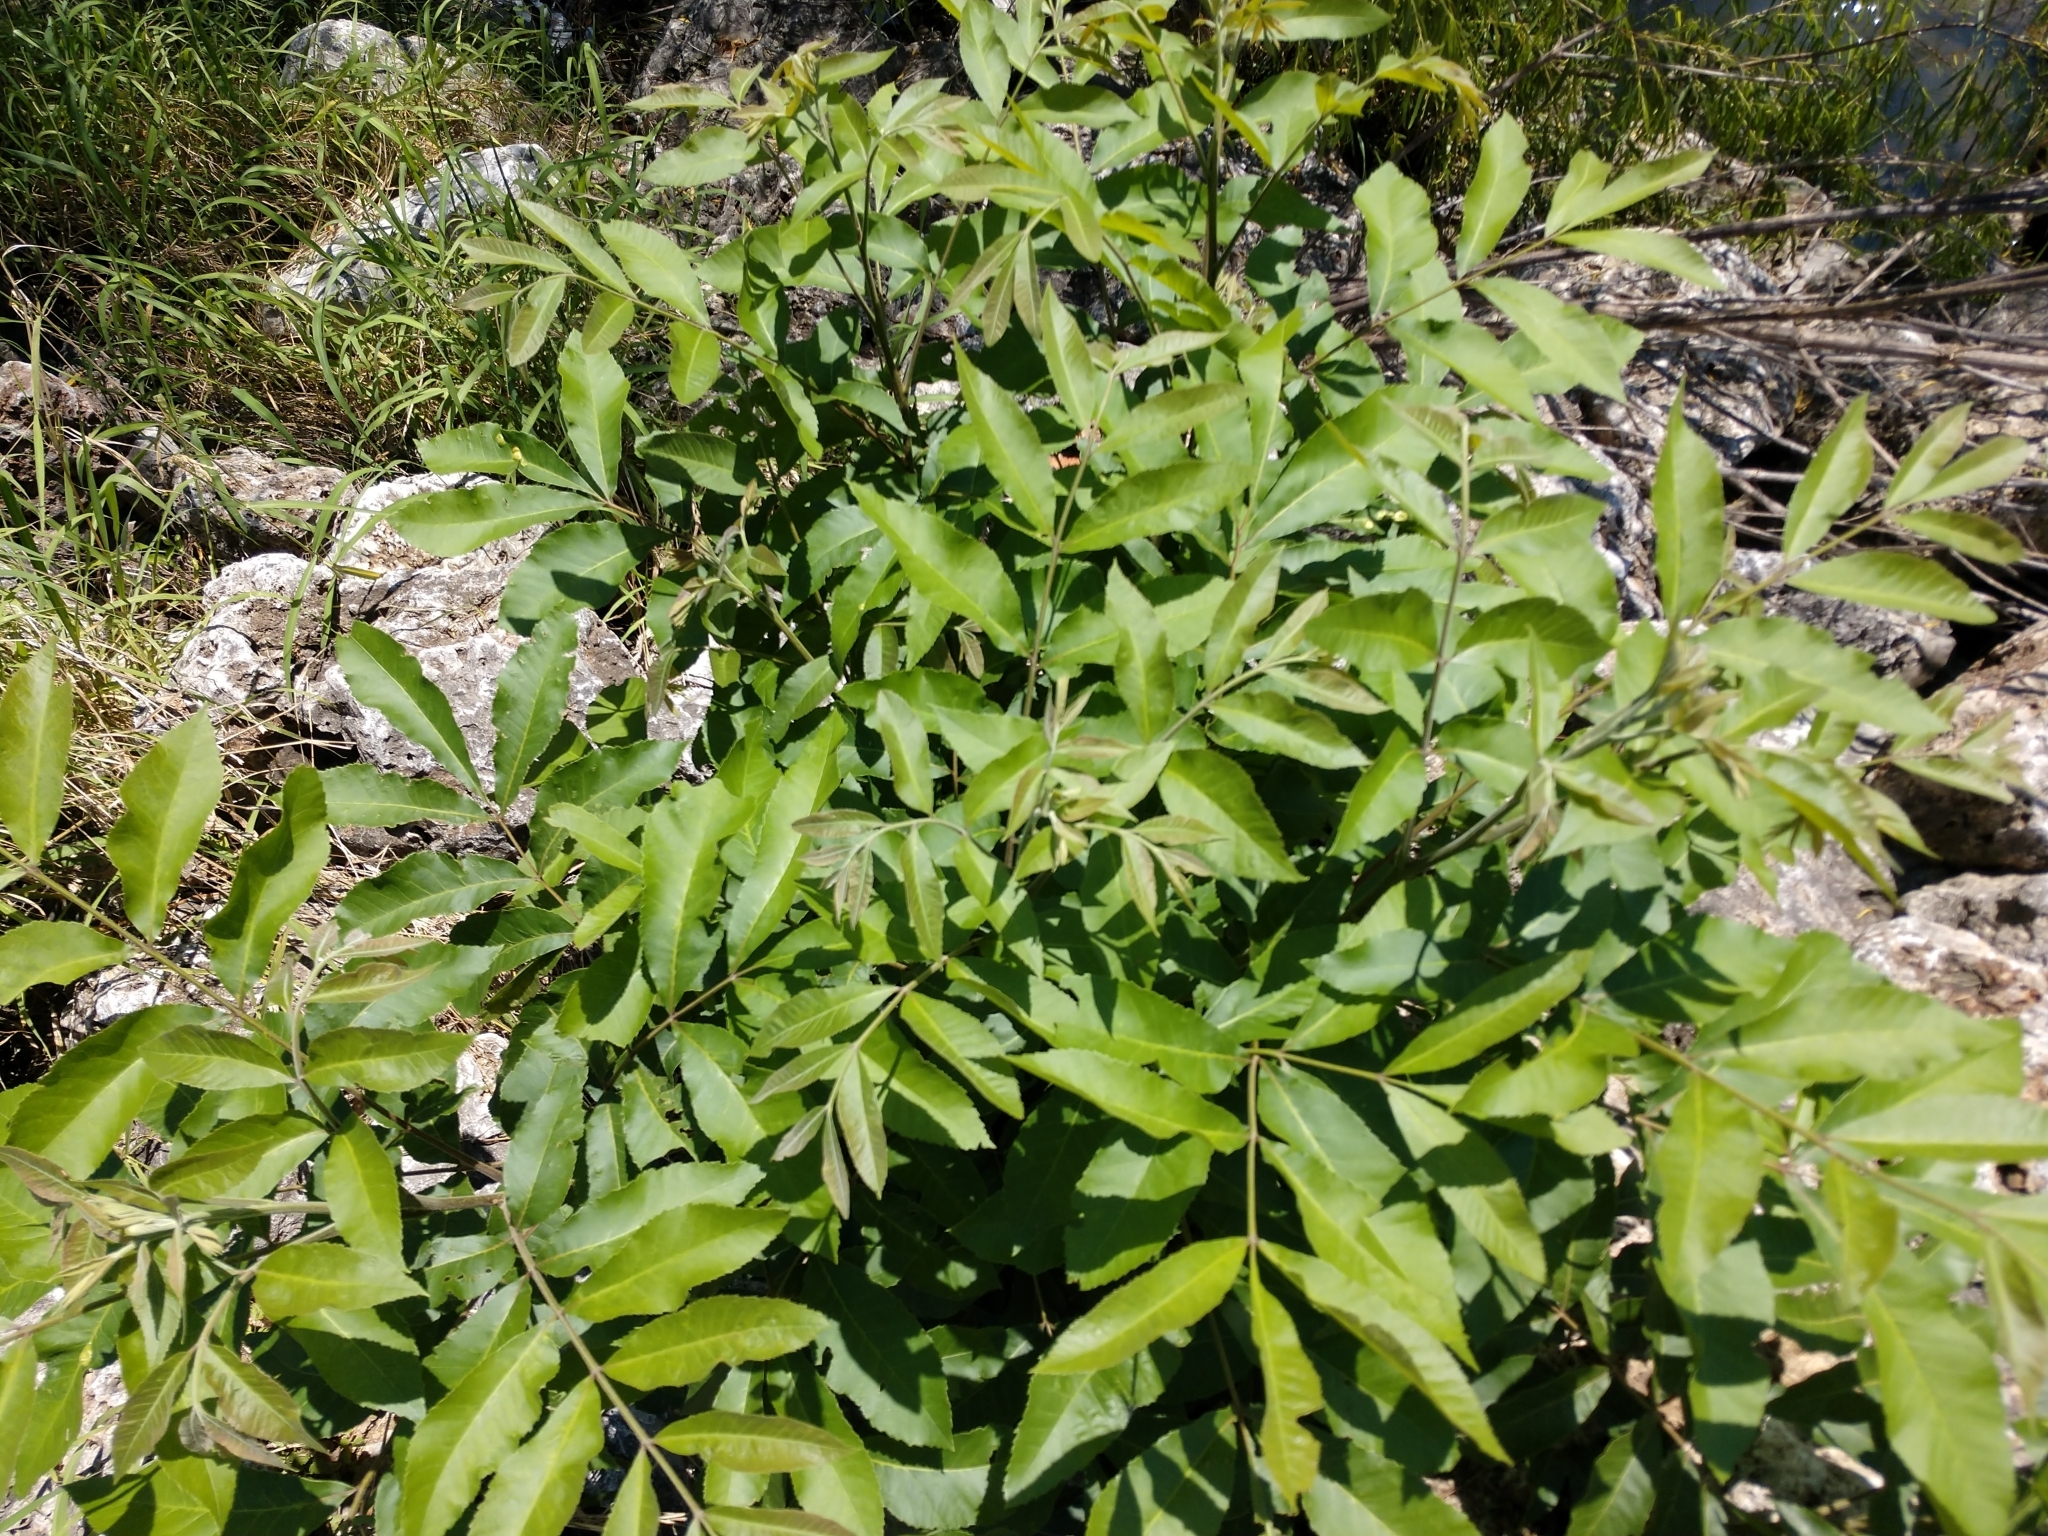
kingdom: Plantae
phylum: Tracheophyta
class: Magnoliopsida
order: Fagales
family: Juglandaceae
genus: Carya
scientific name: Carya illinoinensis
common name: Pecan
